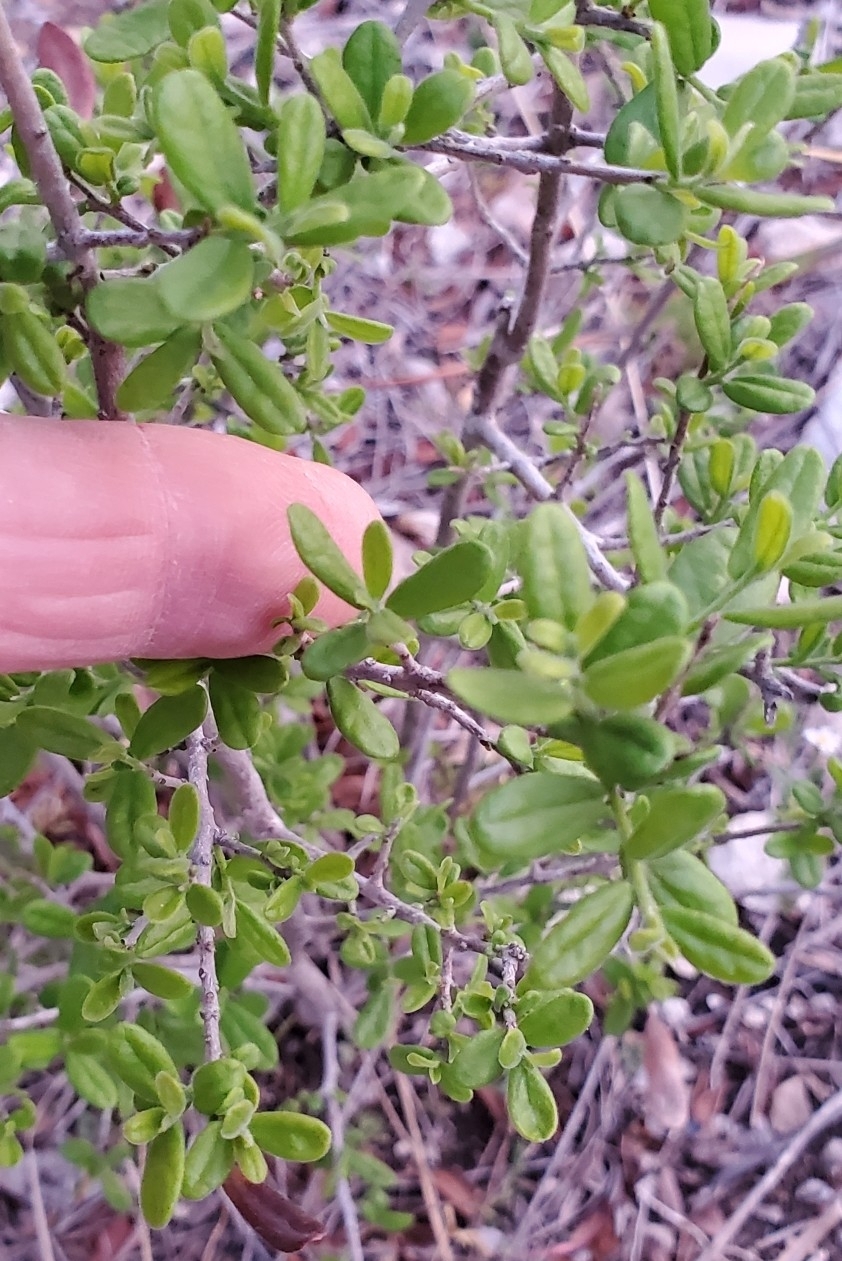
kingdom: Plantae
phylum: Tracheophyta
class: Magnoliopsida
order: Ericales
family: Ebenaceae
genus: Diospyros
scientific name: Diospyros texana
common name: Texas persimmon
